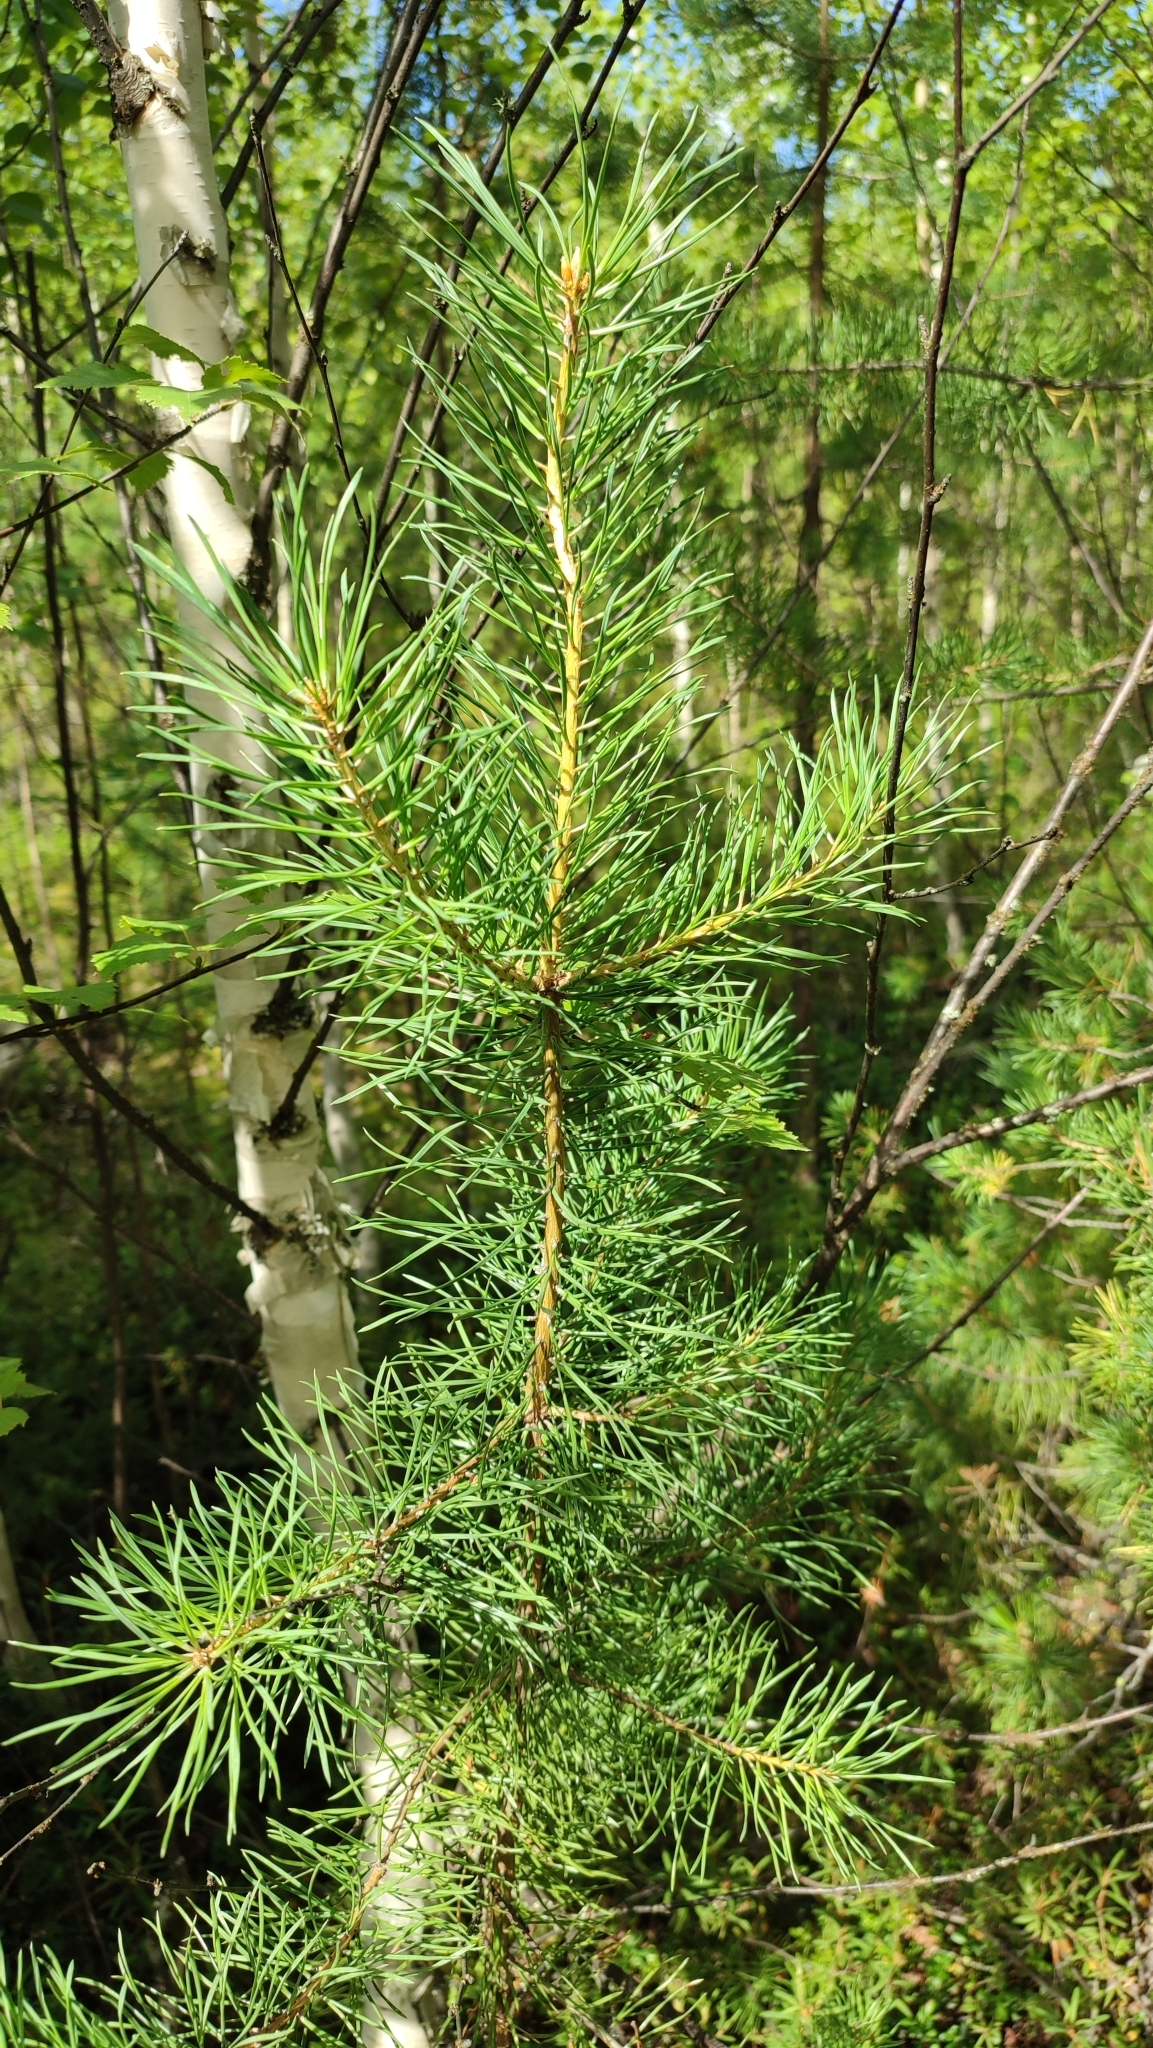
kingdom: Plantae
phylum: Tracheophyta
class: Pinopsida
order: Pinales
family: Pinaceae
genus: Pinus
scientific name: Pinus sylvestris
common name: Scots pine
